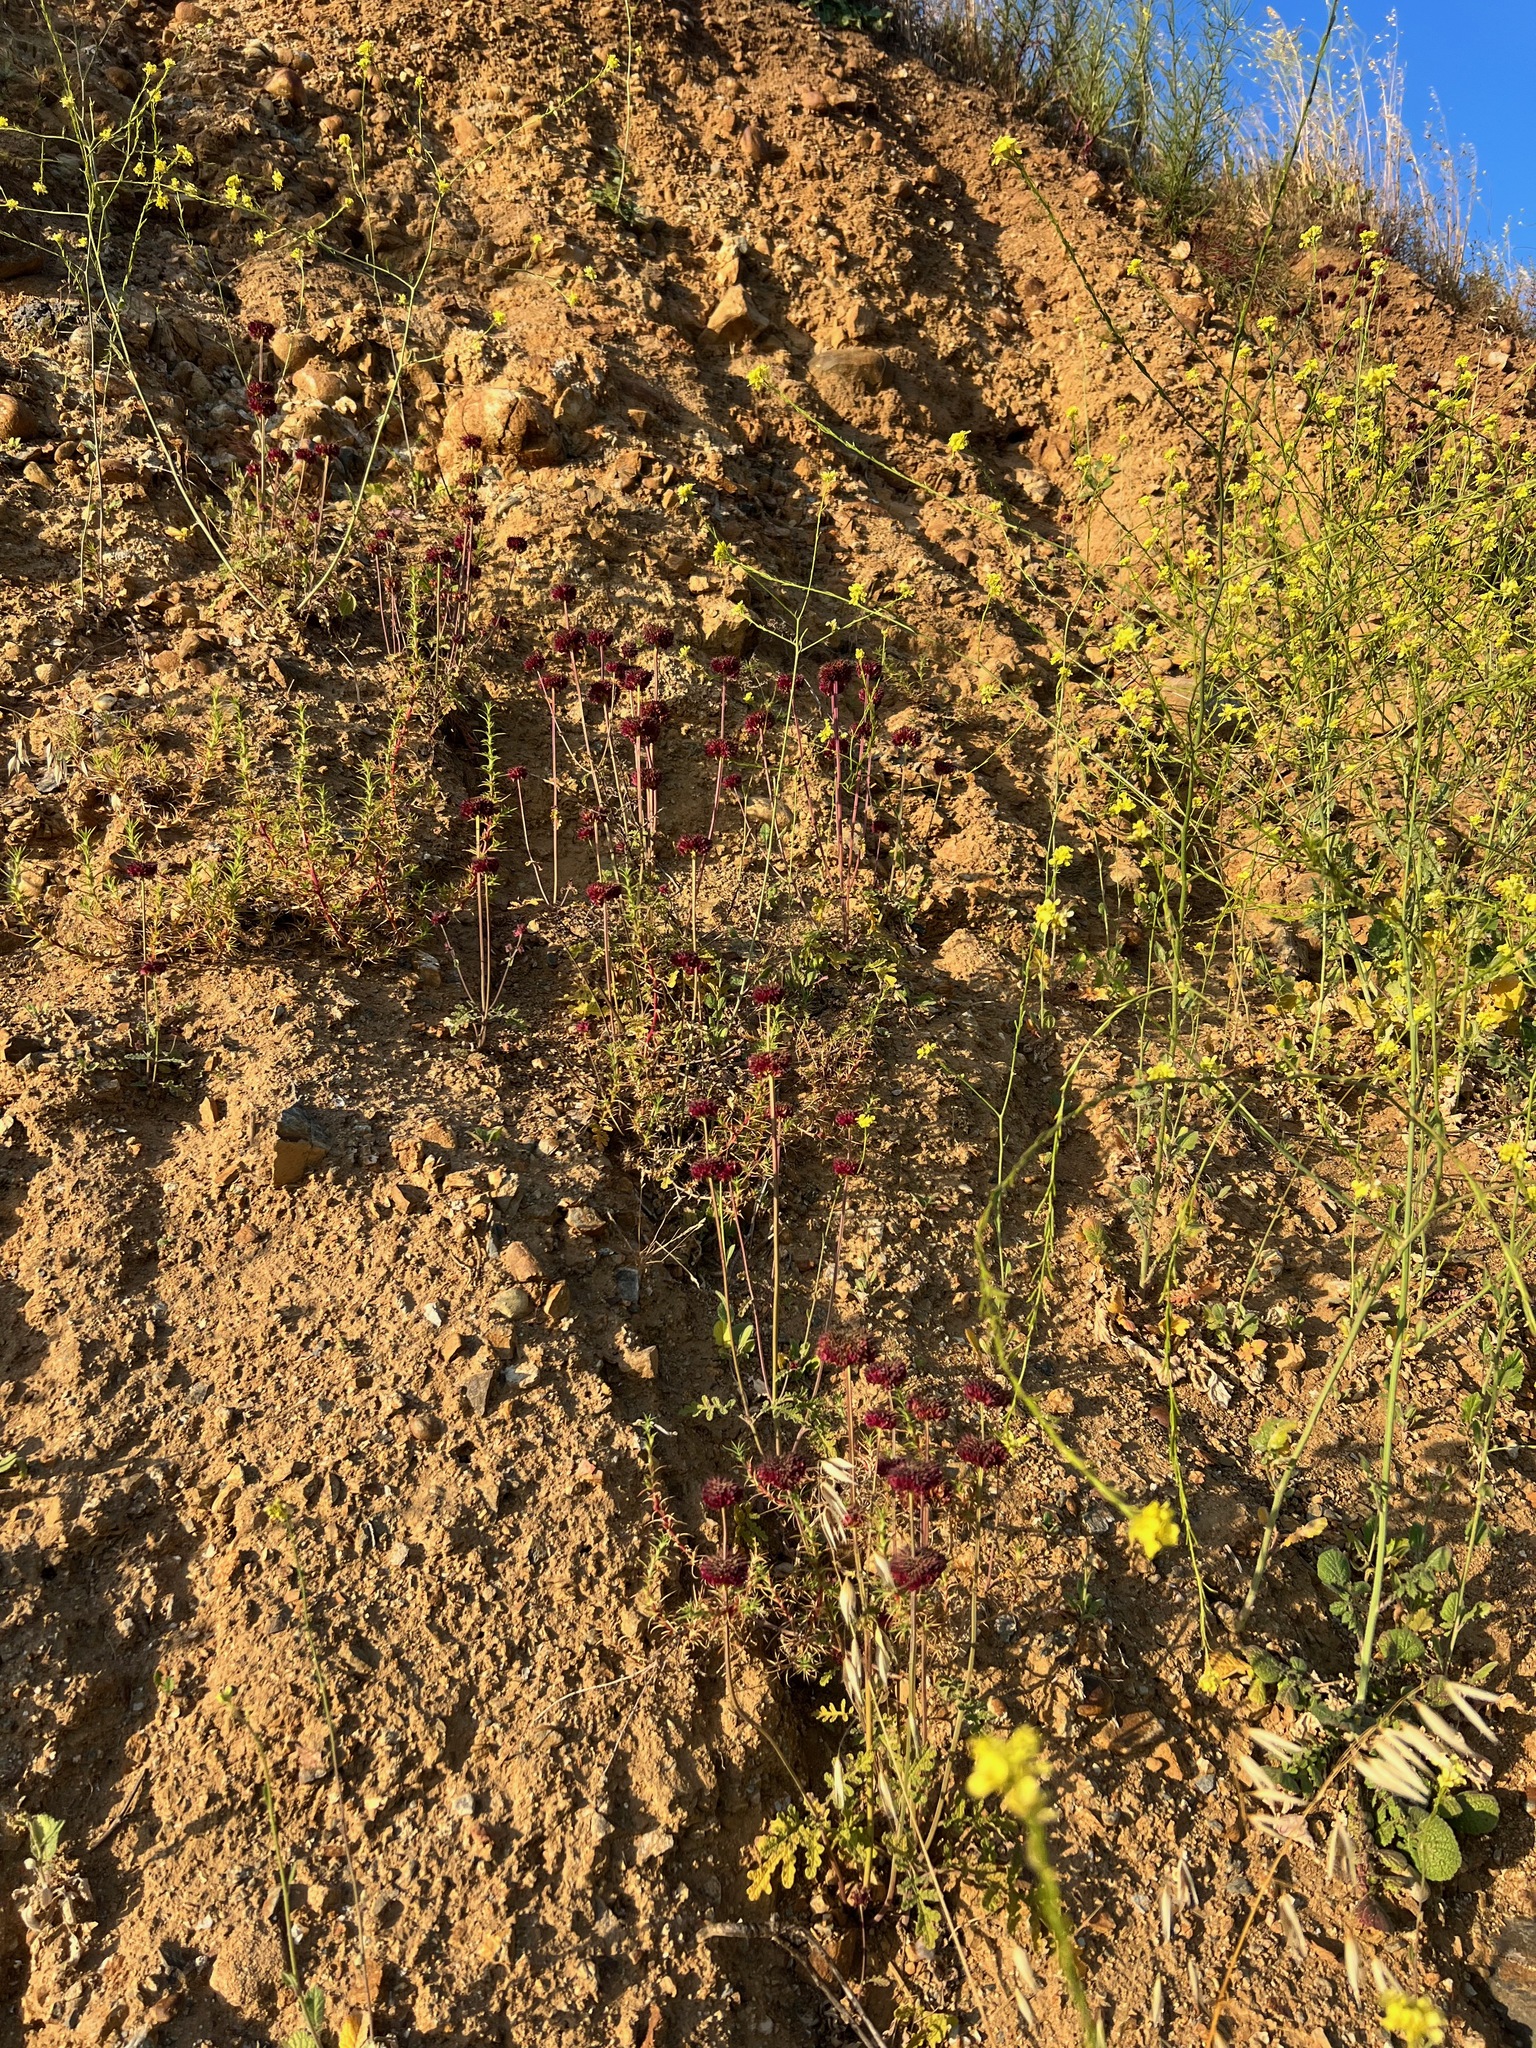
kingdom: Plantae
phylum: Tracheophyta
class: Magnoliopsida
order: Lamiales
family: Lamiaceae
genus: Salvia
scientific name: Salvia columbariae
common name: Chia
